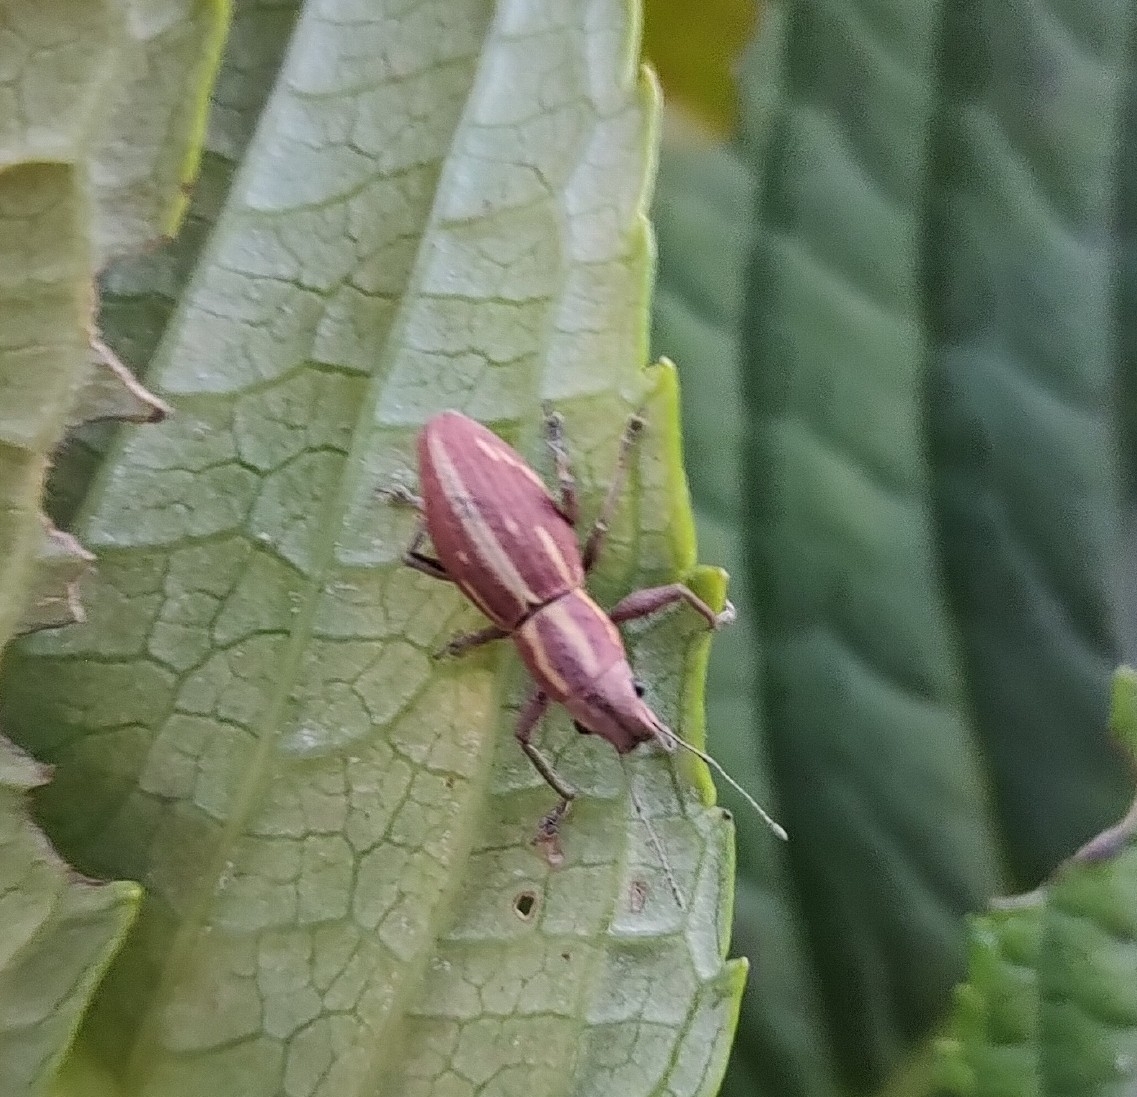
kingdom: Animalia
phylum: Arthropoda
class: Insecta
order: Coleoptera
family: Curculionidae
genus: Naupactus
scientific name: Naupactus dissimilis
